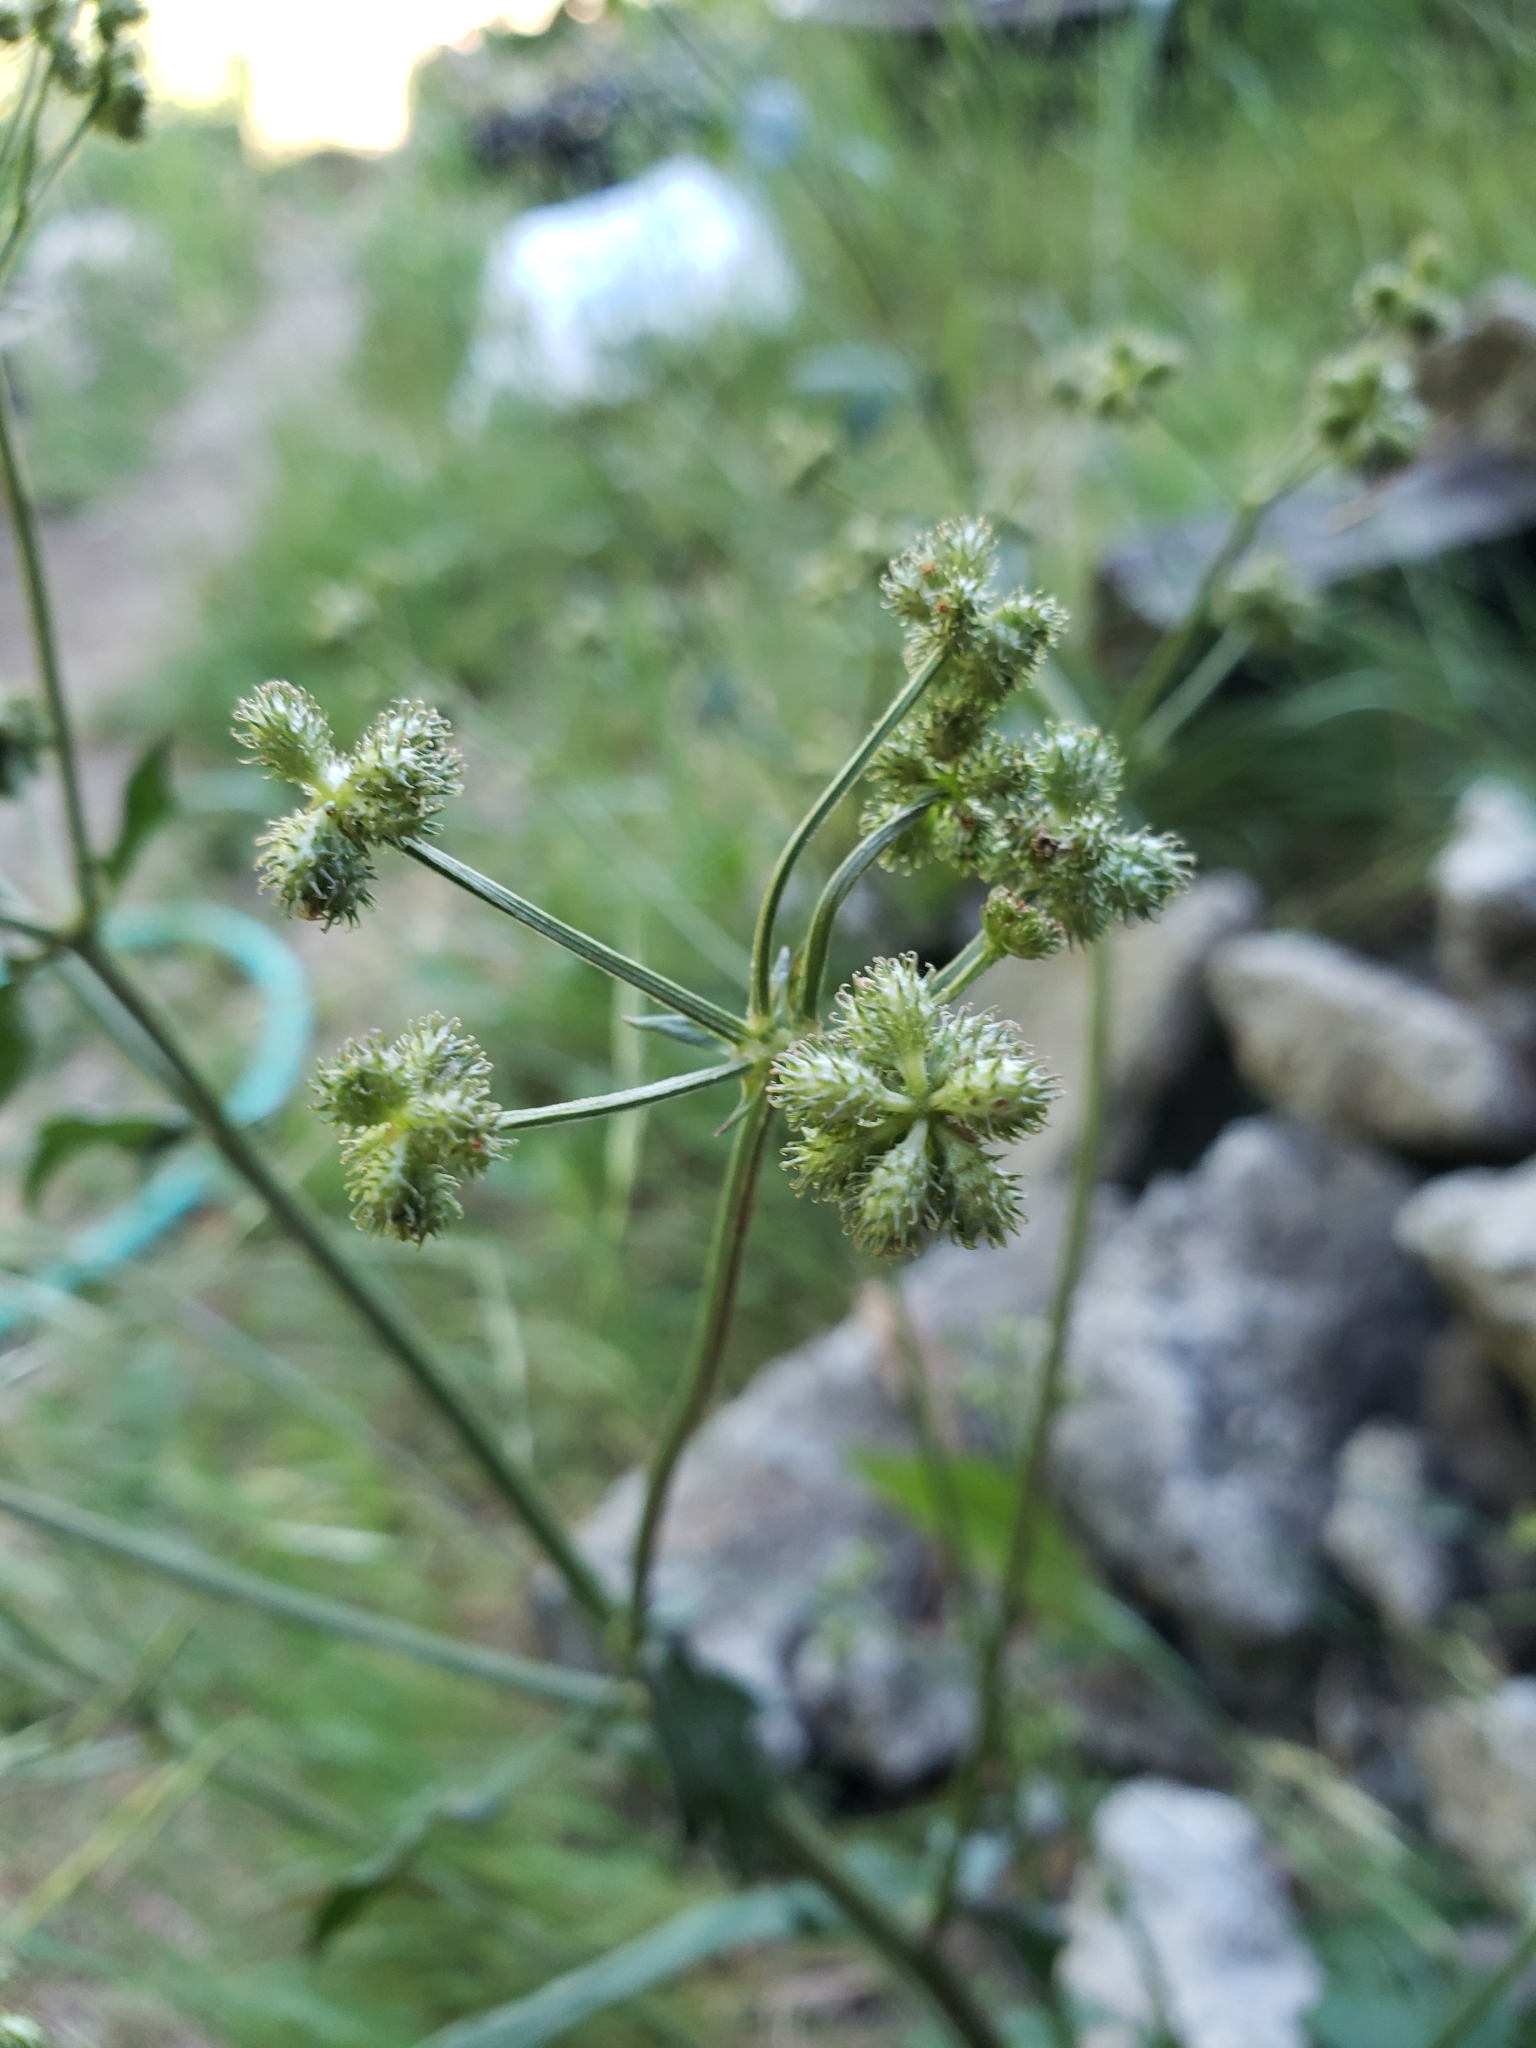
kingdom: Plantae
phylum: Tracheophyta
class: Magnoliopsida
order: Apiales
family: Apiaceae
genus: Sanicula
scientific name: Sanicula crassicaulis
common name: Western snakeroot
